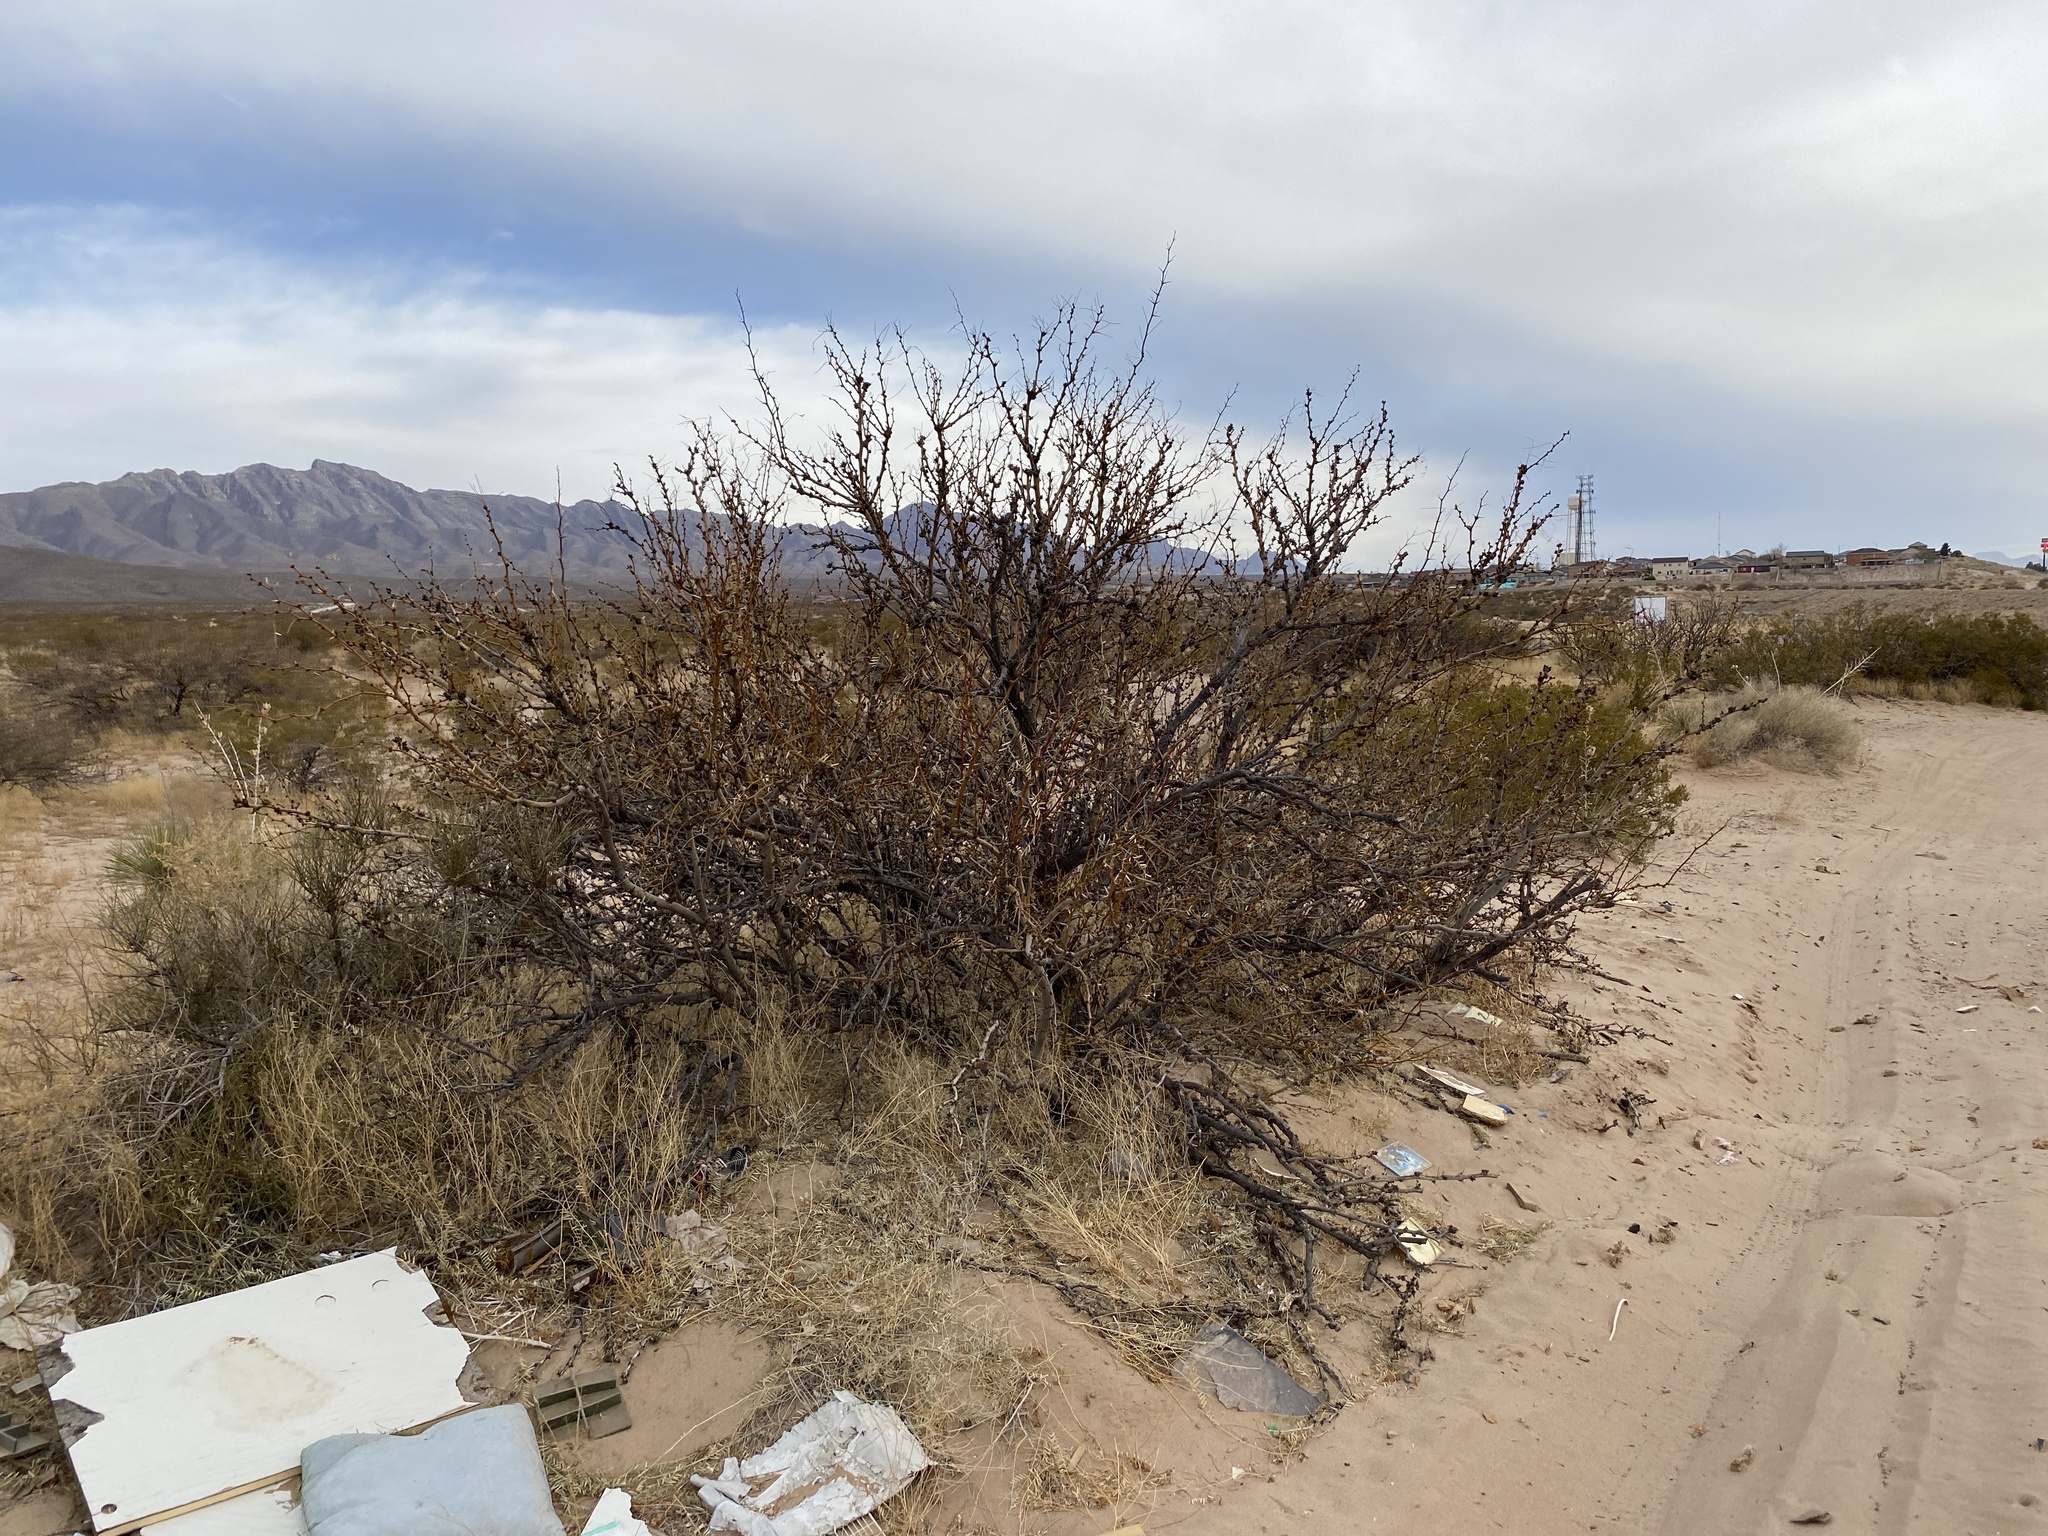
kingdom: Plantae
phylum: Tracheophyta
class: Magnoliopsida
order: Fabales
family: Fabaceae
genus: Prosopis
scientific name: Prosopis glandulosa
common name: Honey mesquite
